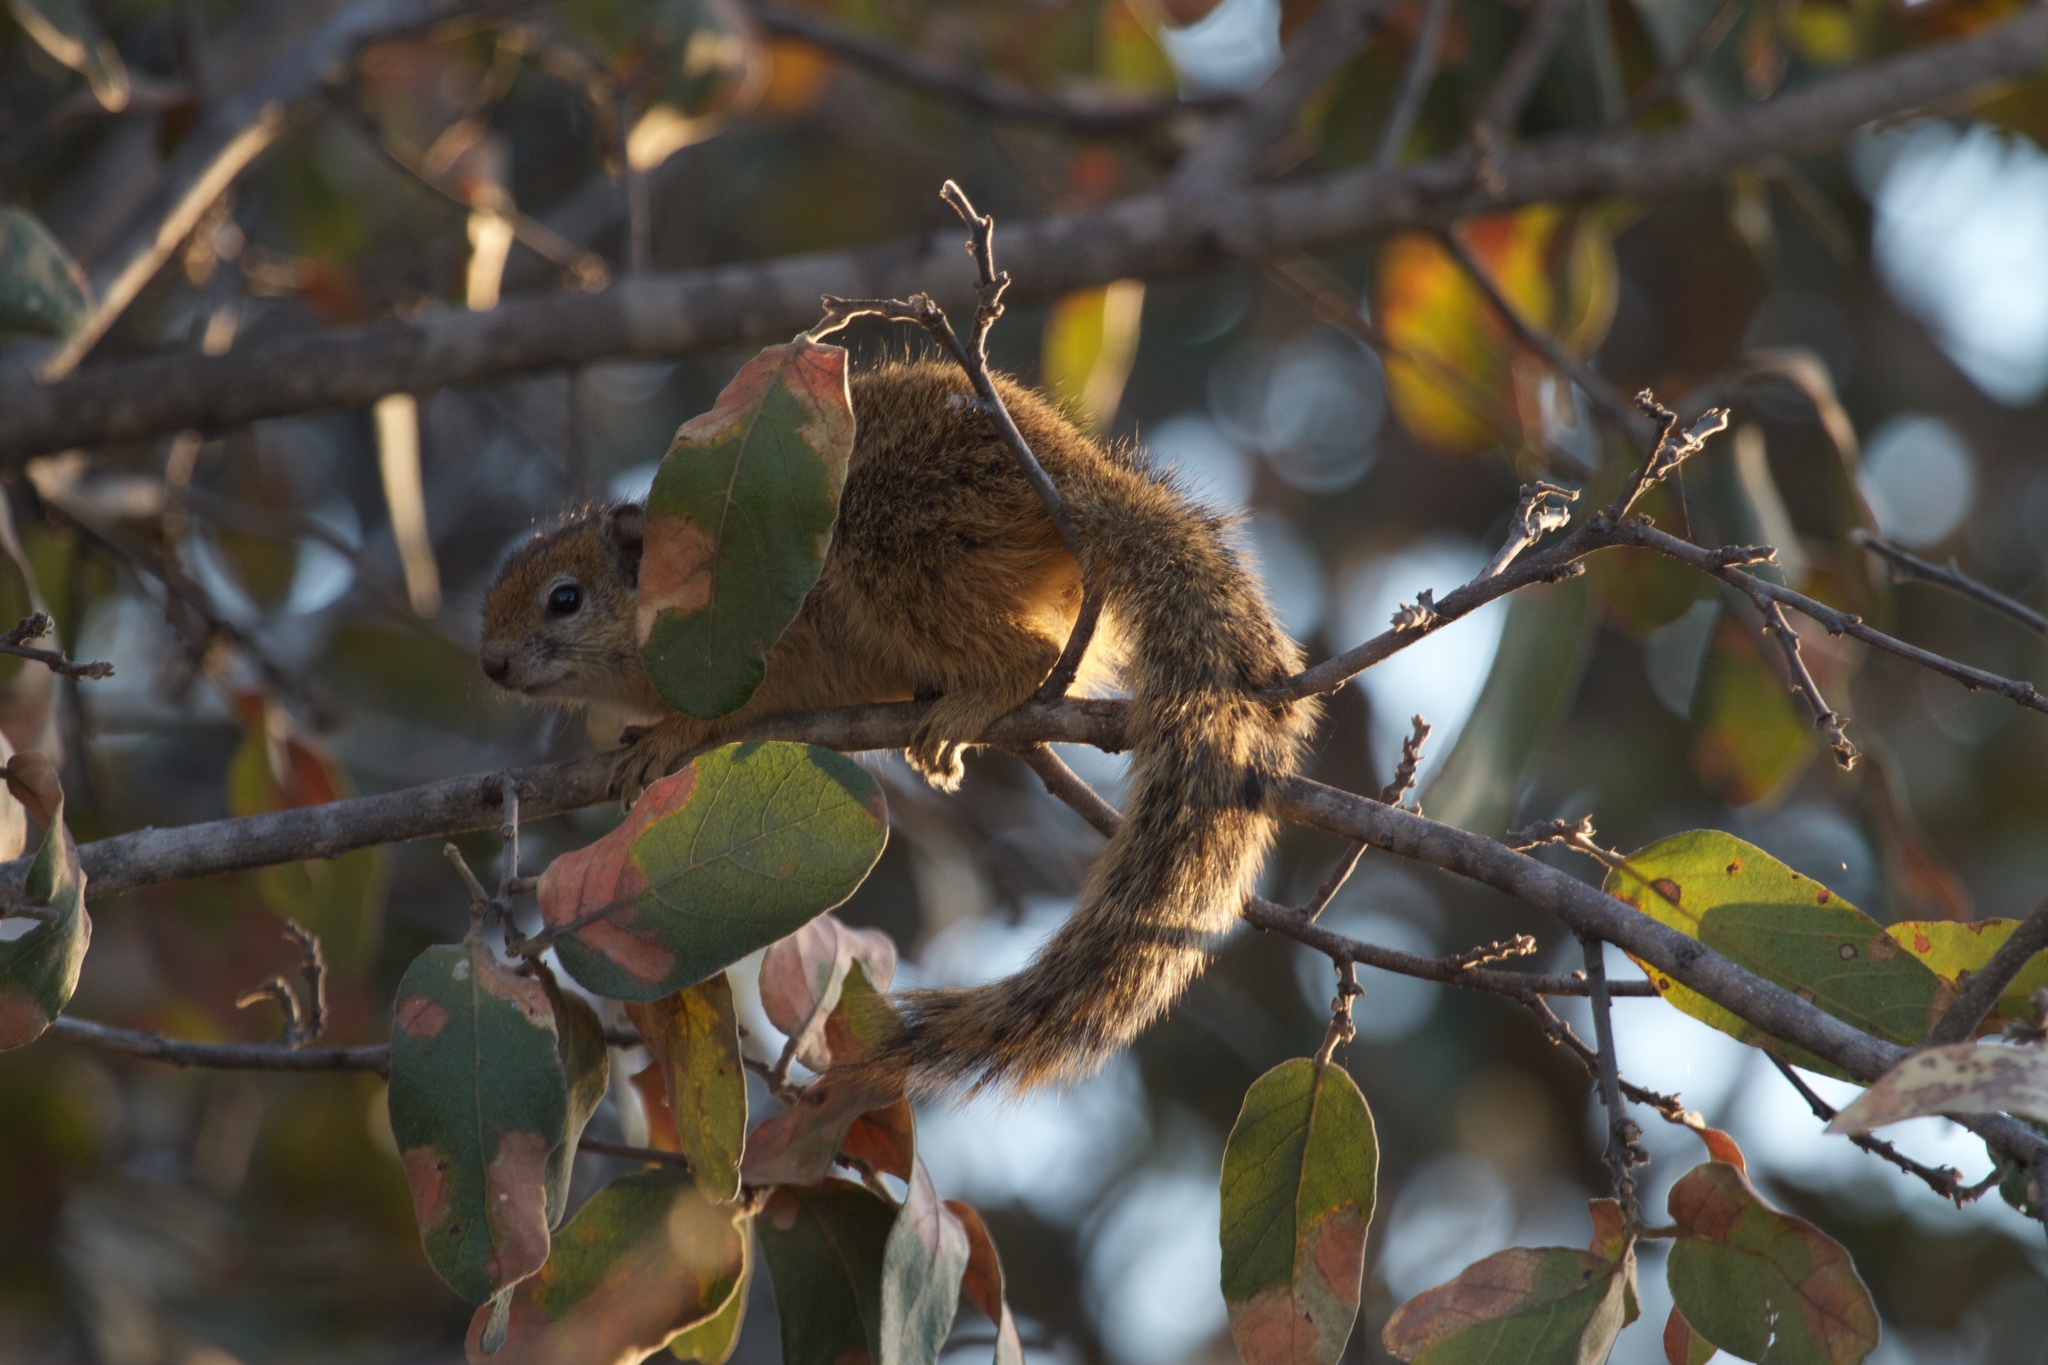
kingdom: Animalia
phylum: Chordata
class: Mammalia
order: Rodentia
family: Sciuridae
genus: Paraxerus
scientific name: Paraxerus cepapi
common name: Smith's bush squirrel
